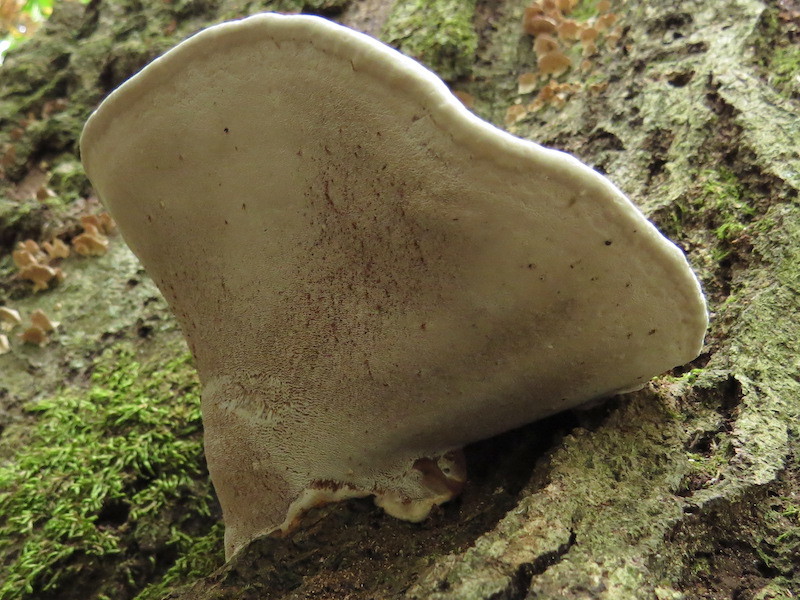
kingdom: Fungi
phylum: Basidiomycota
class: Agaricomycetes
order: Polyporales
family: Polyporaceae
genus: Ganoderma
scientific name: Ganoderma lobatum
